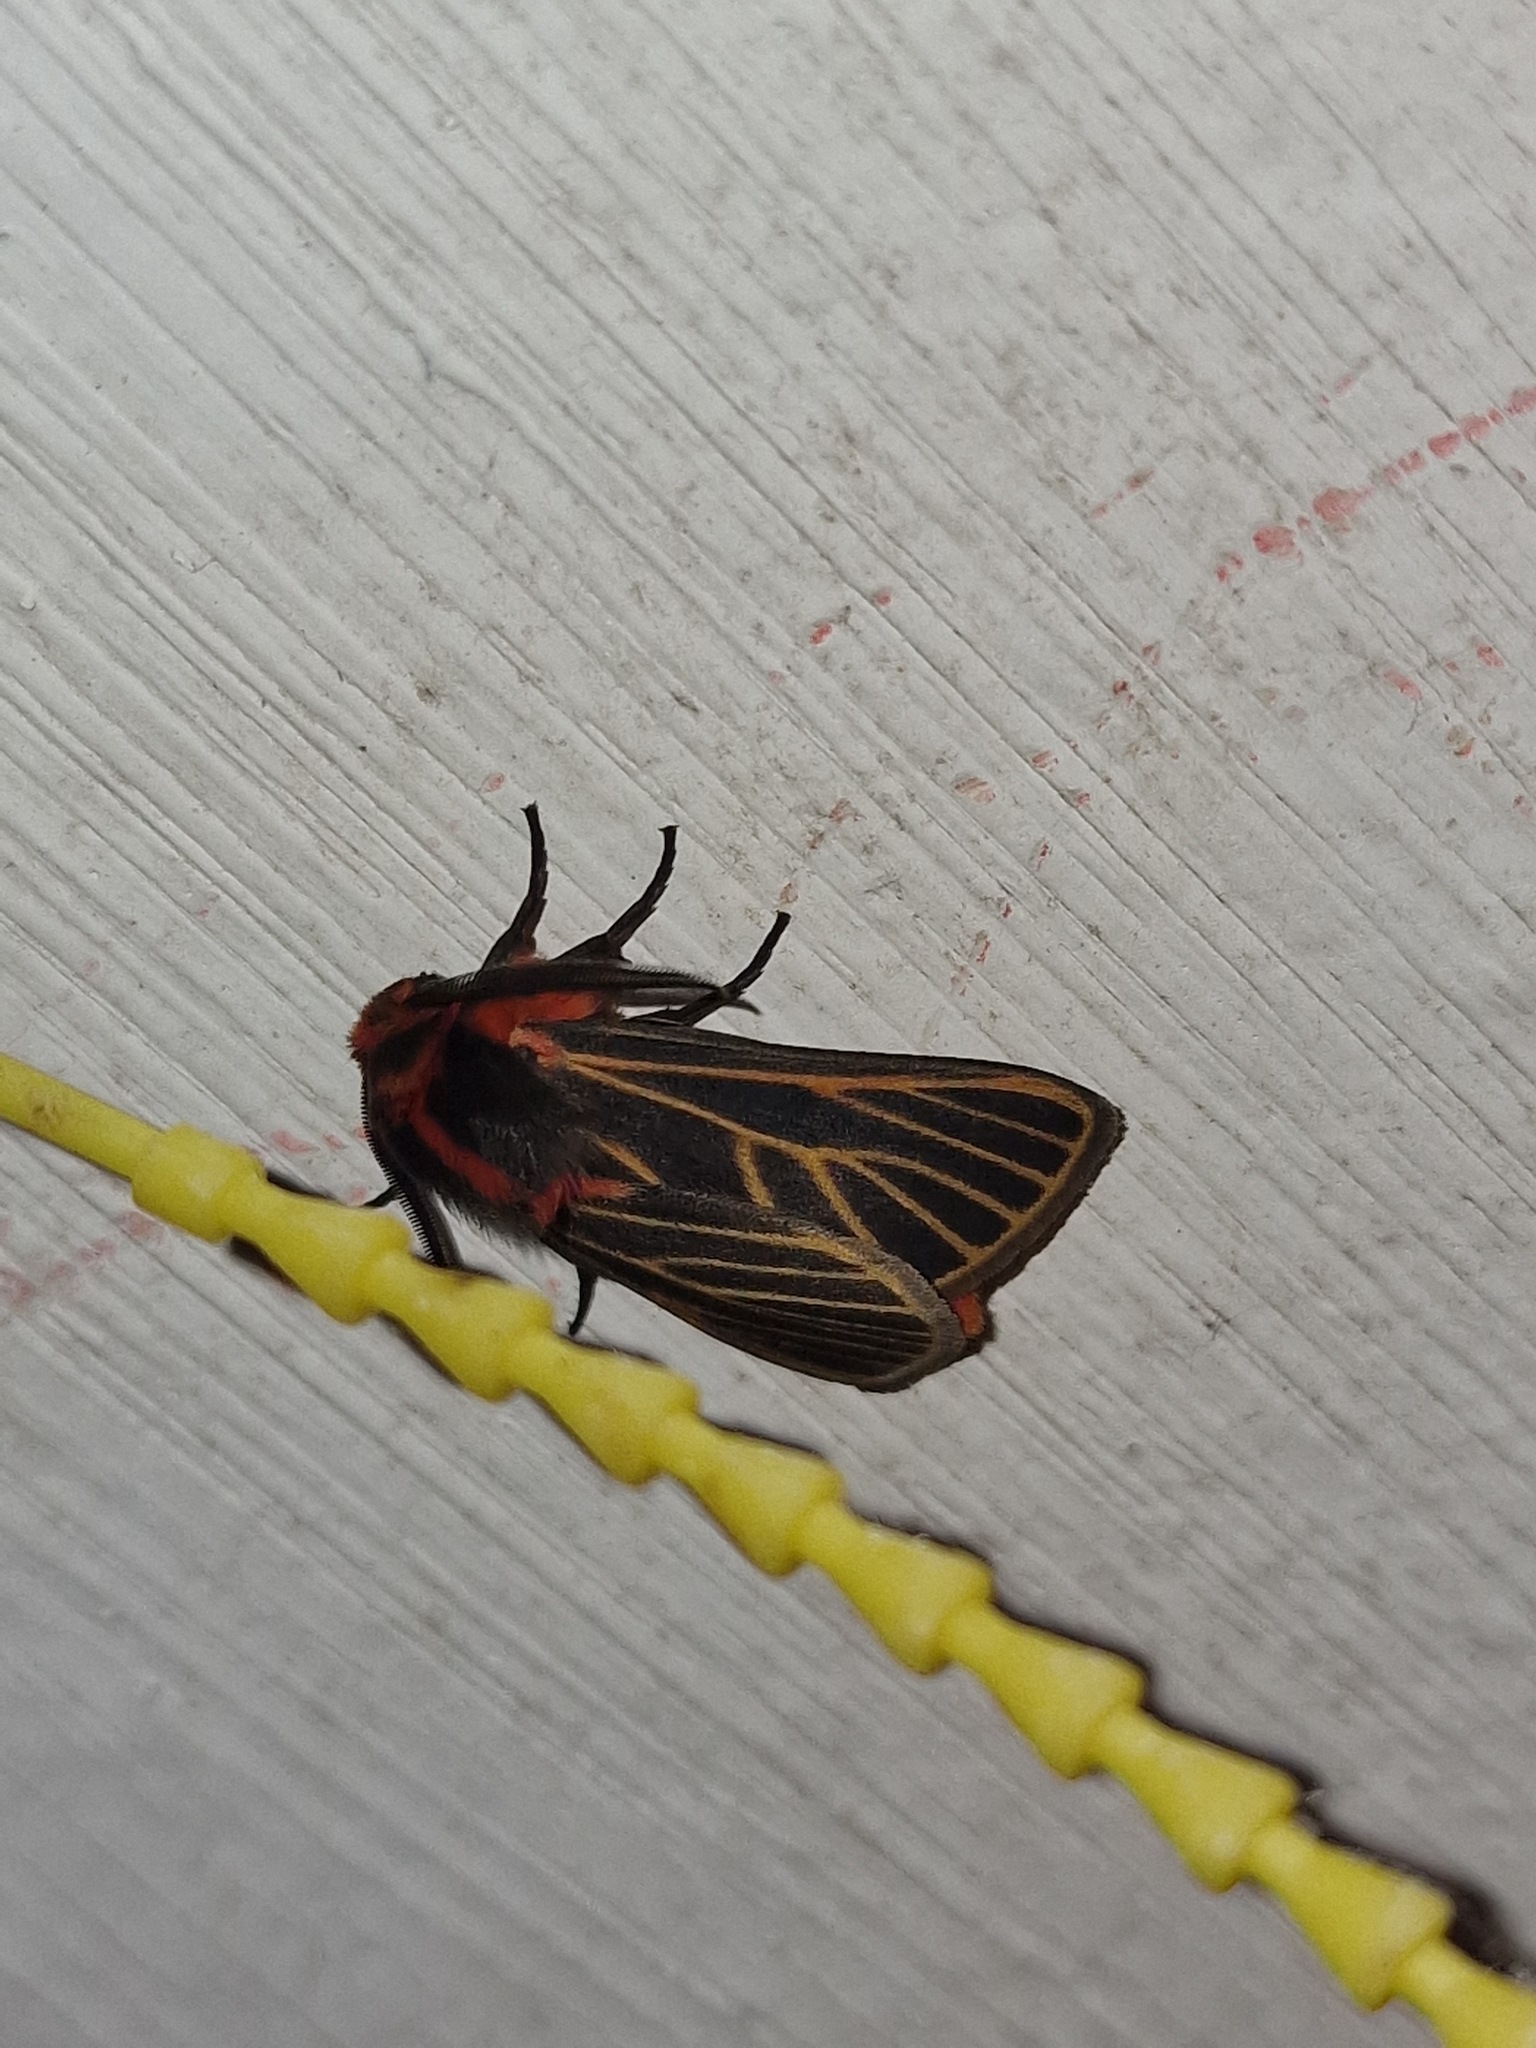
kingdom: Animalia
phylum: Arthropoda
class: Insecta
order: Lepidoptera
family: Erebidae
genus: Automolis
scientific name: Automolis Metarctia flavivena
